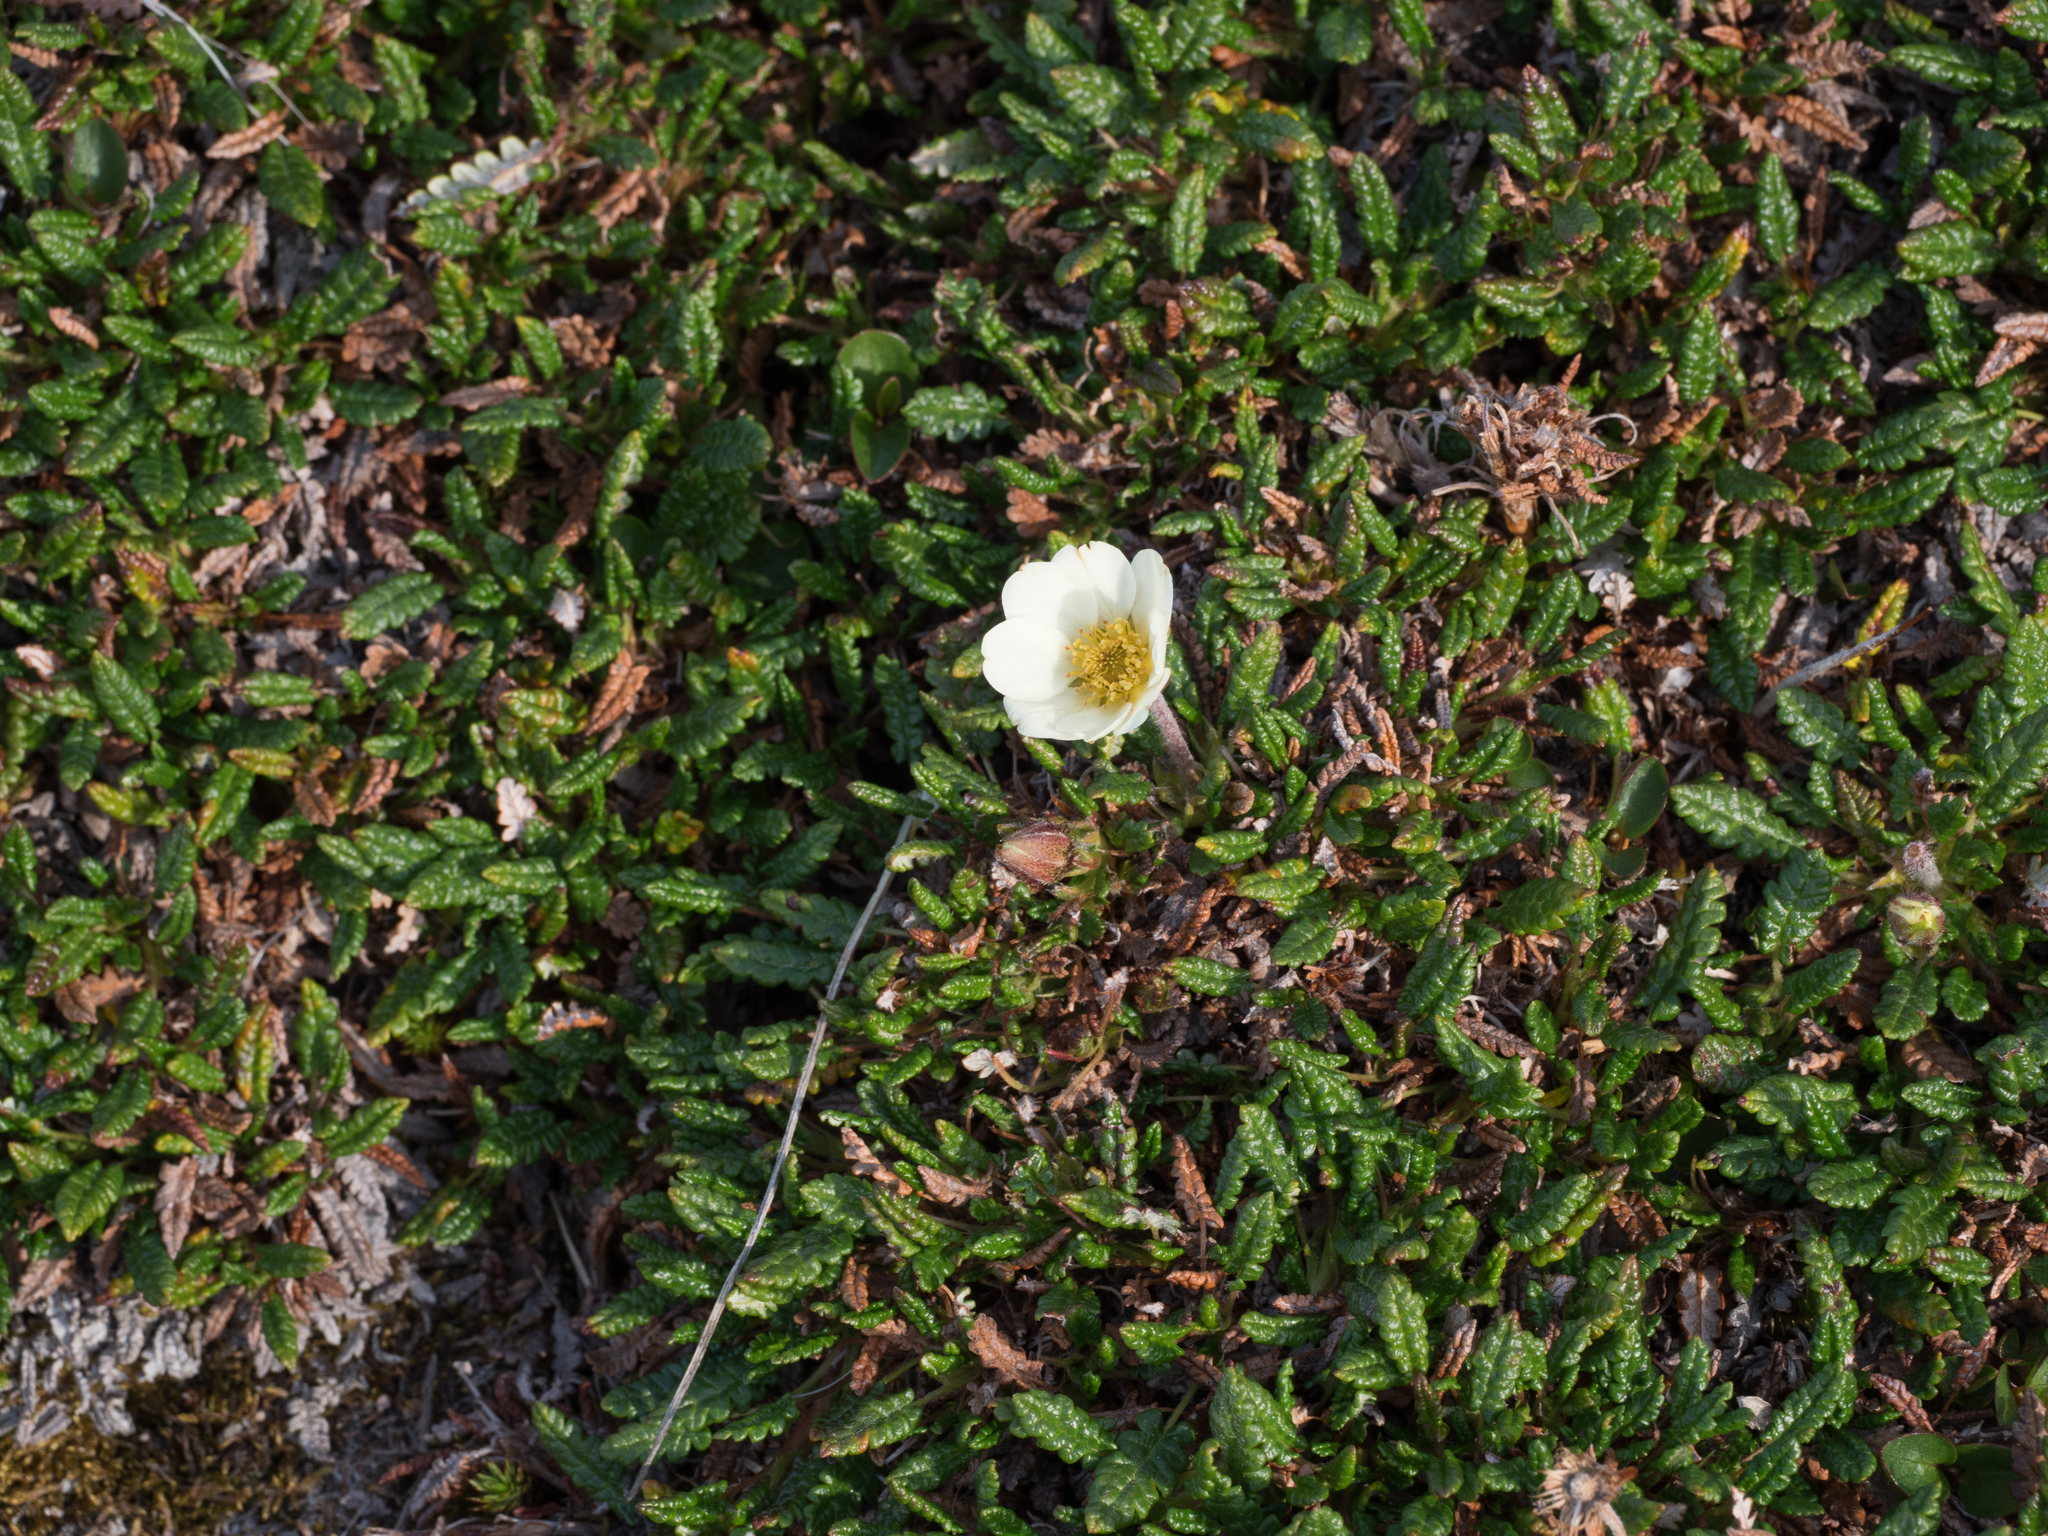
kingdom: Plantae
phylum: Tracheophyta
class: Magnoliopsida
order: Rosales
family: Rosaceae
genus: Dryas
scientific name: Dryas octopetala
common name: Eight-petal mountain-avens
